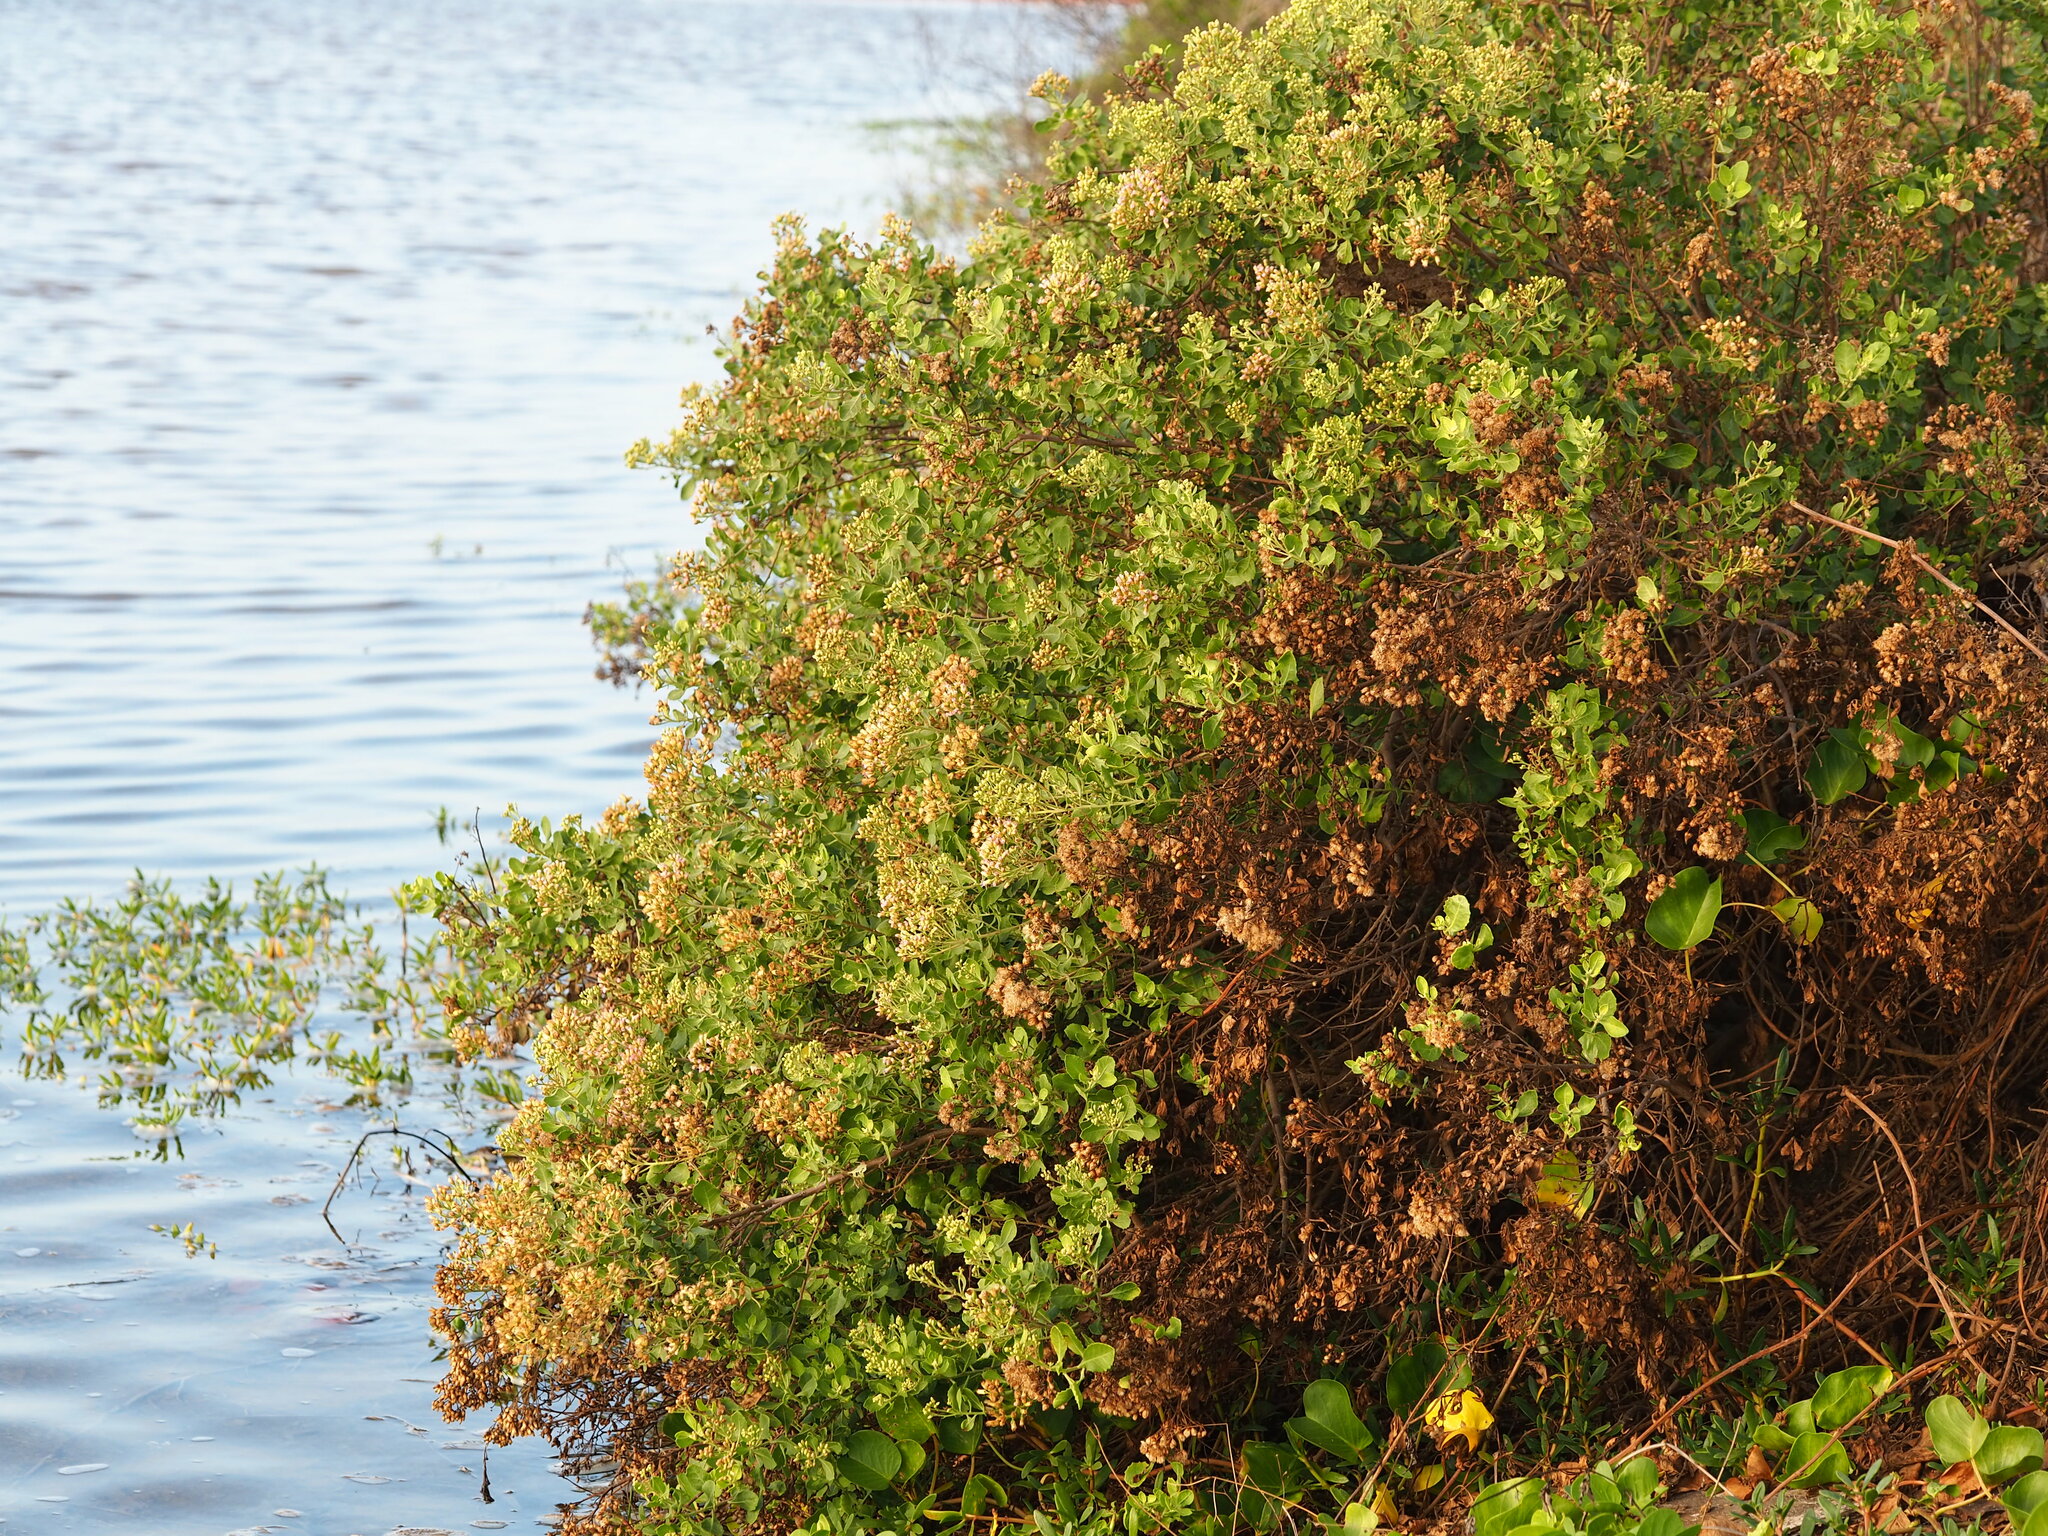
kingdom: Plantae
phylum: Tracheophyta
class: Magnoliopsida
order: Asterales
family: Asteraceae
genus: Pluchea
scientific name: Pluchea indica
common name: Indian fleabane
